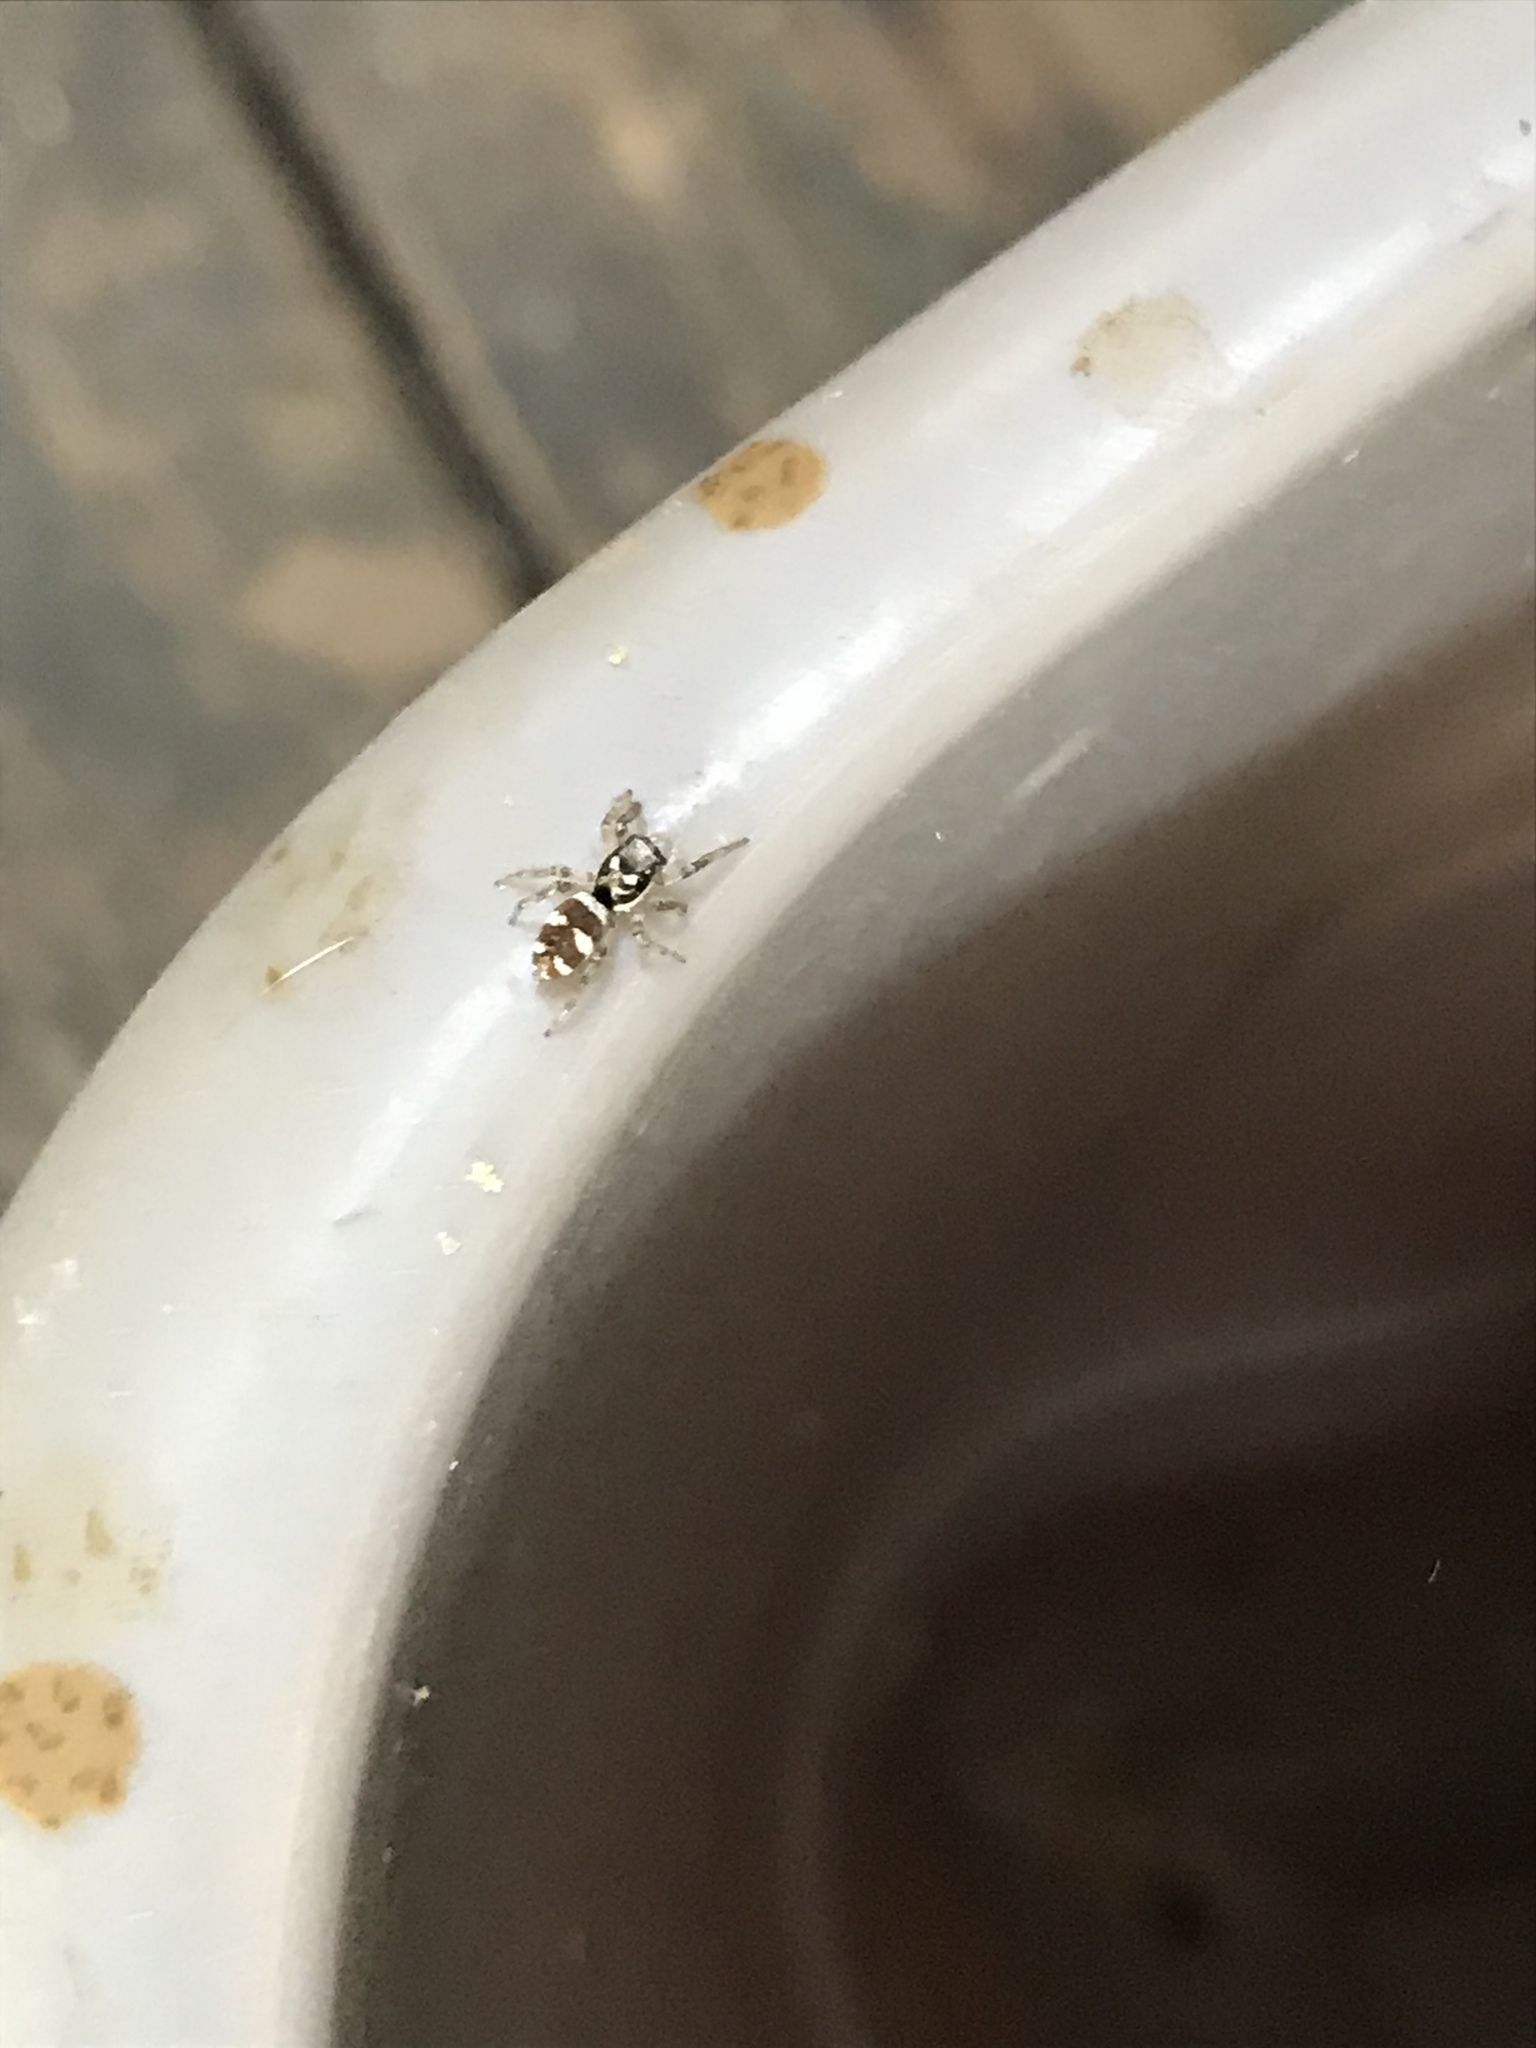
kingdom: Animalia
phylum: Arthropoda
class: Arachnida
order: Araneae
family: Salticidae
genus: Salticus
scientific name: Salticus scenicus
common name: Zebra jumper
